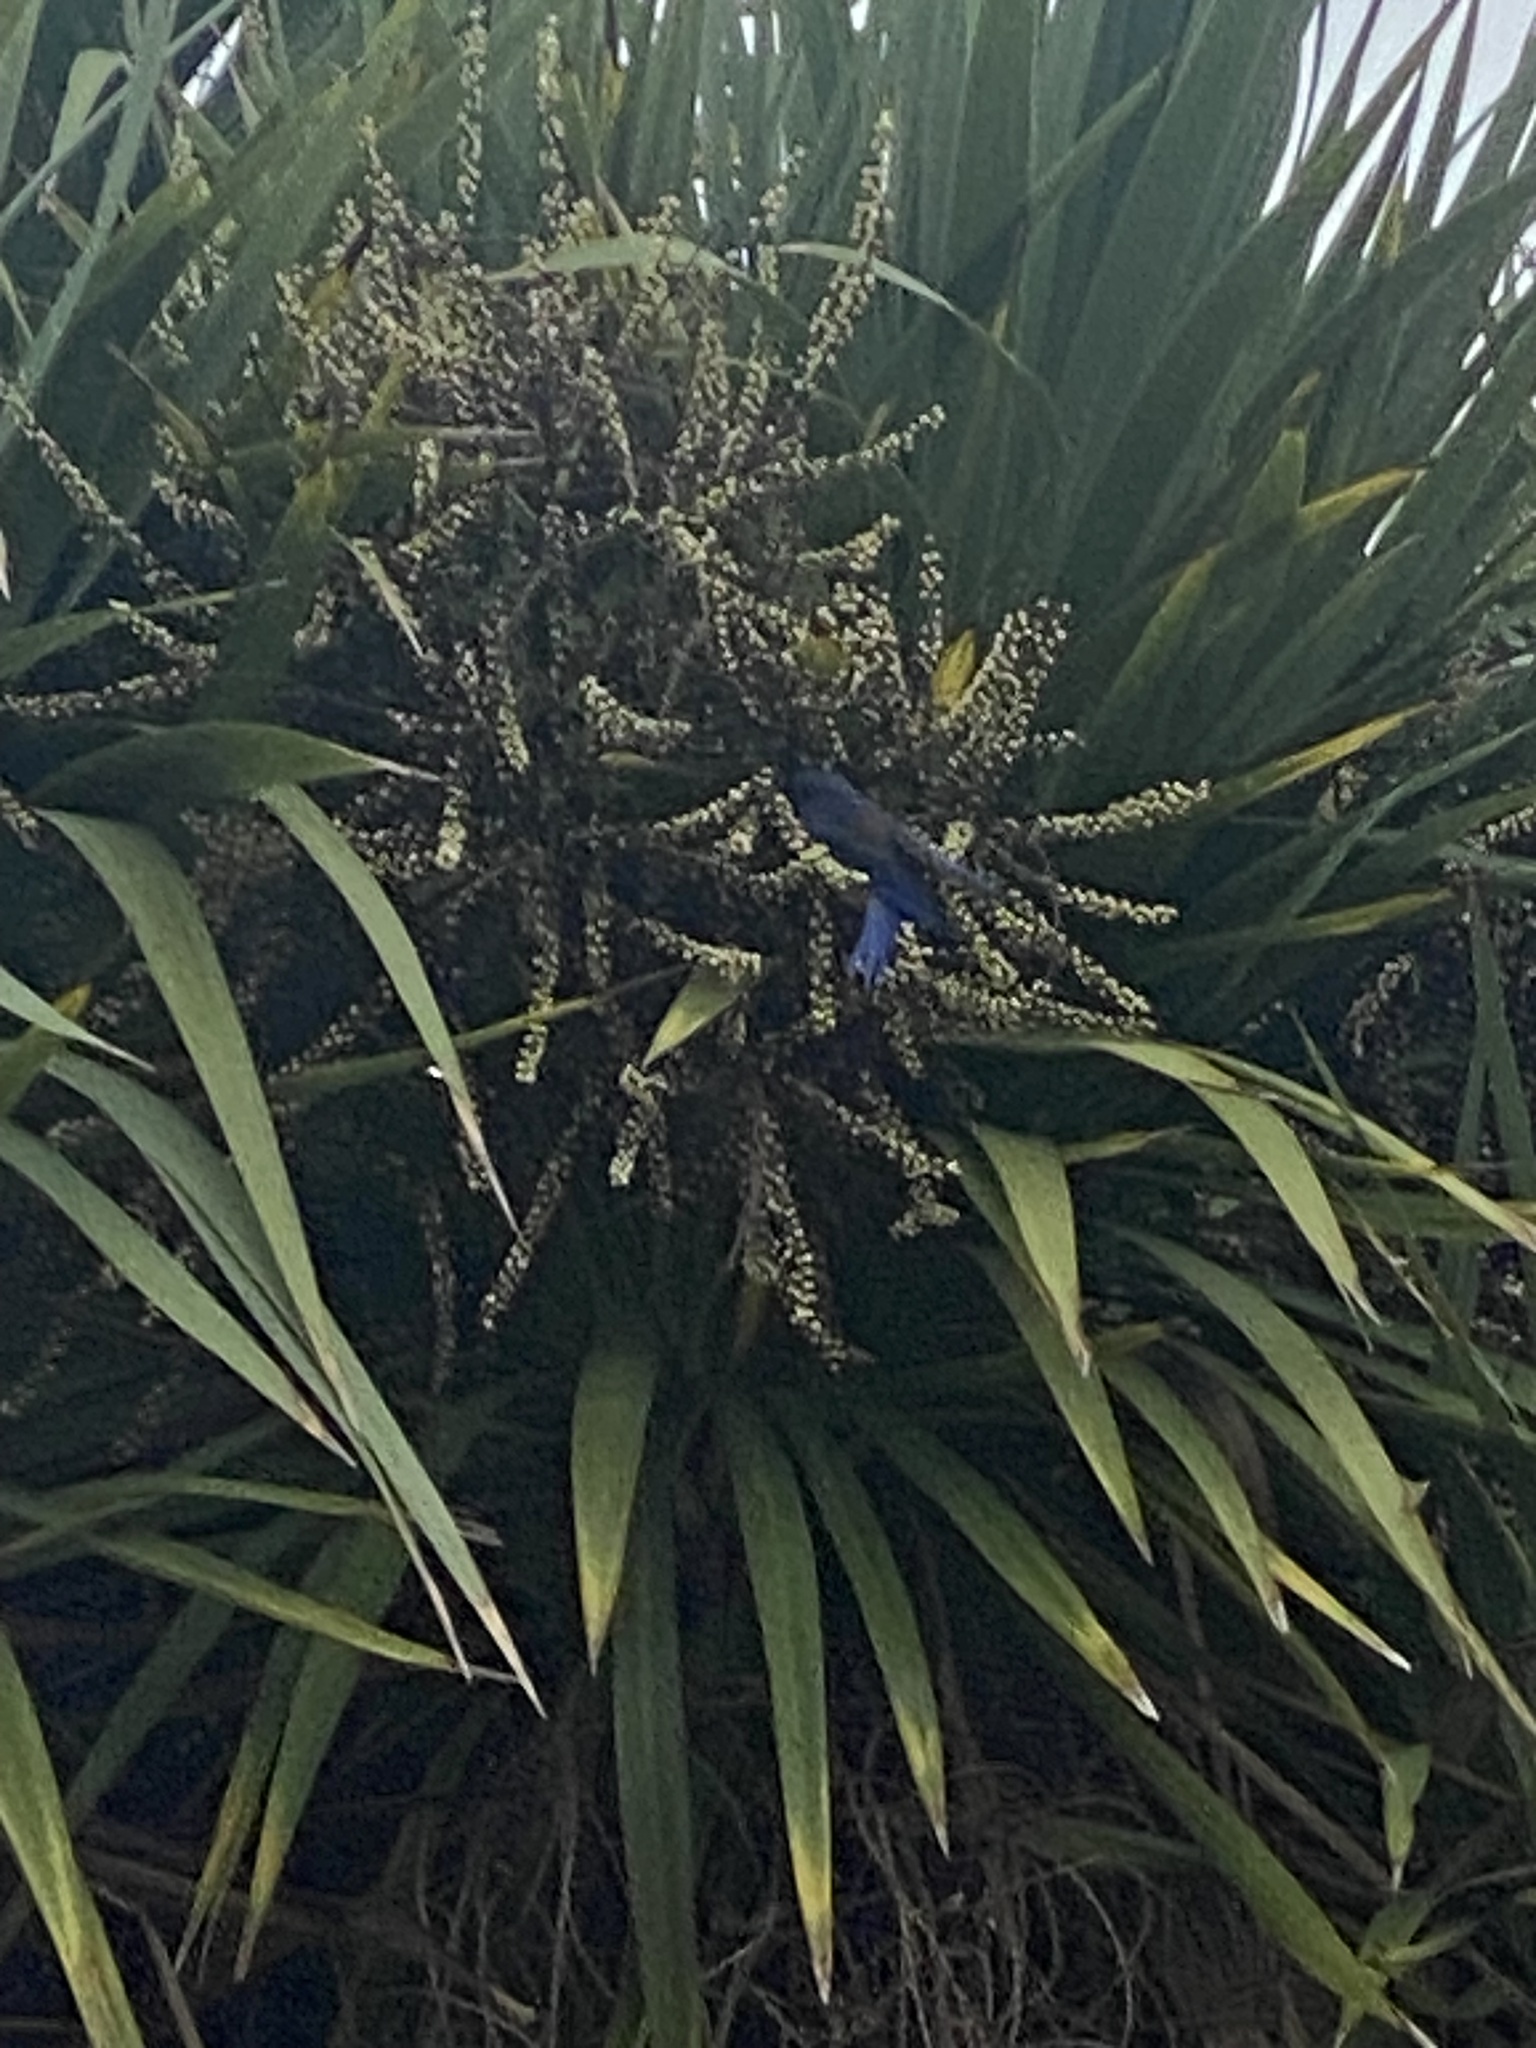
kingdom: Animalia
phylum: Chordata
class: Aves
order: Passeriformes
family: Turdidae
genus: Sialia
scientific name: Sialia mexicana
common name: Western bluebird
